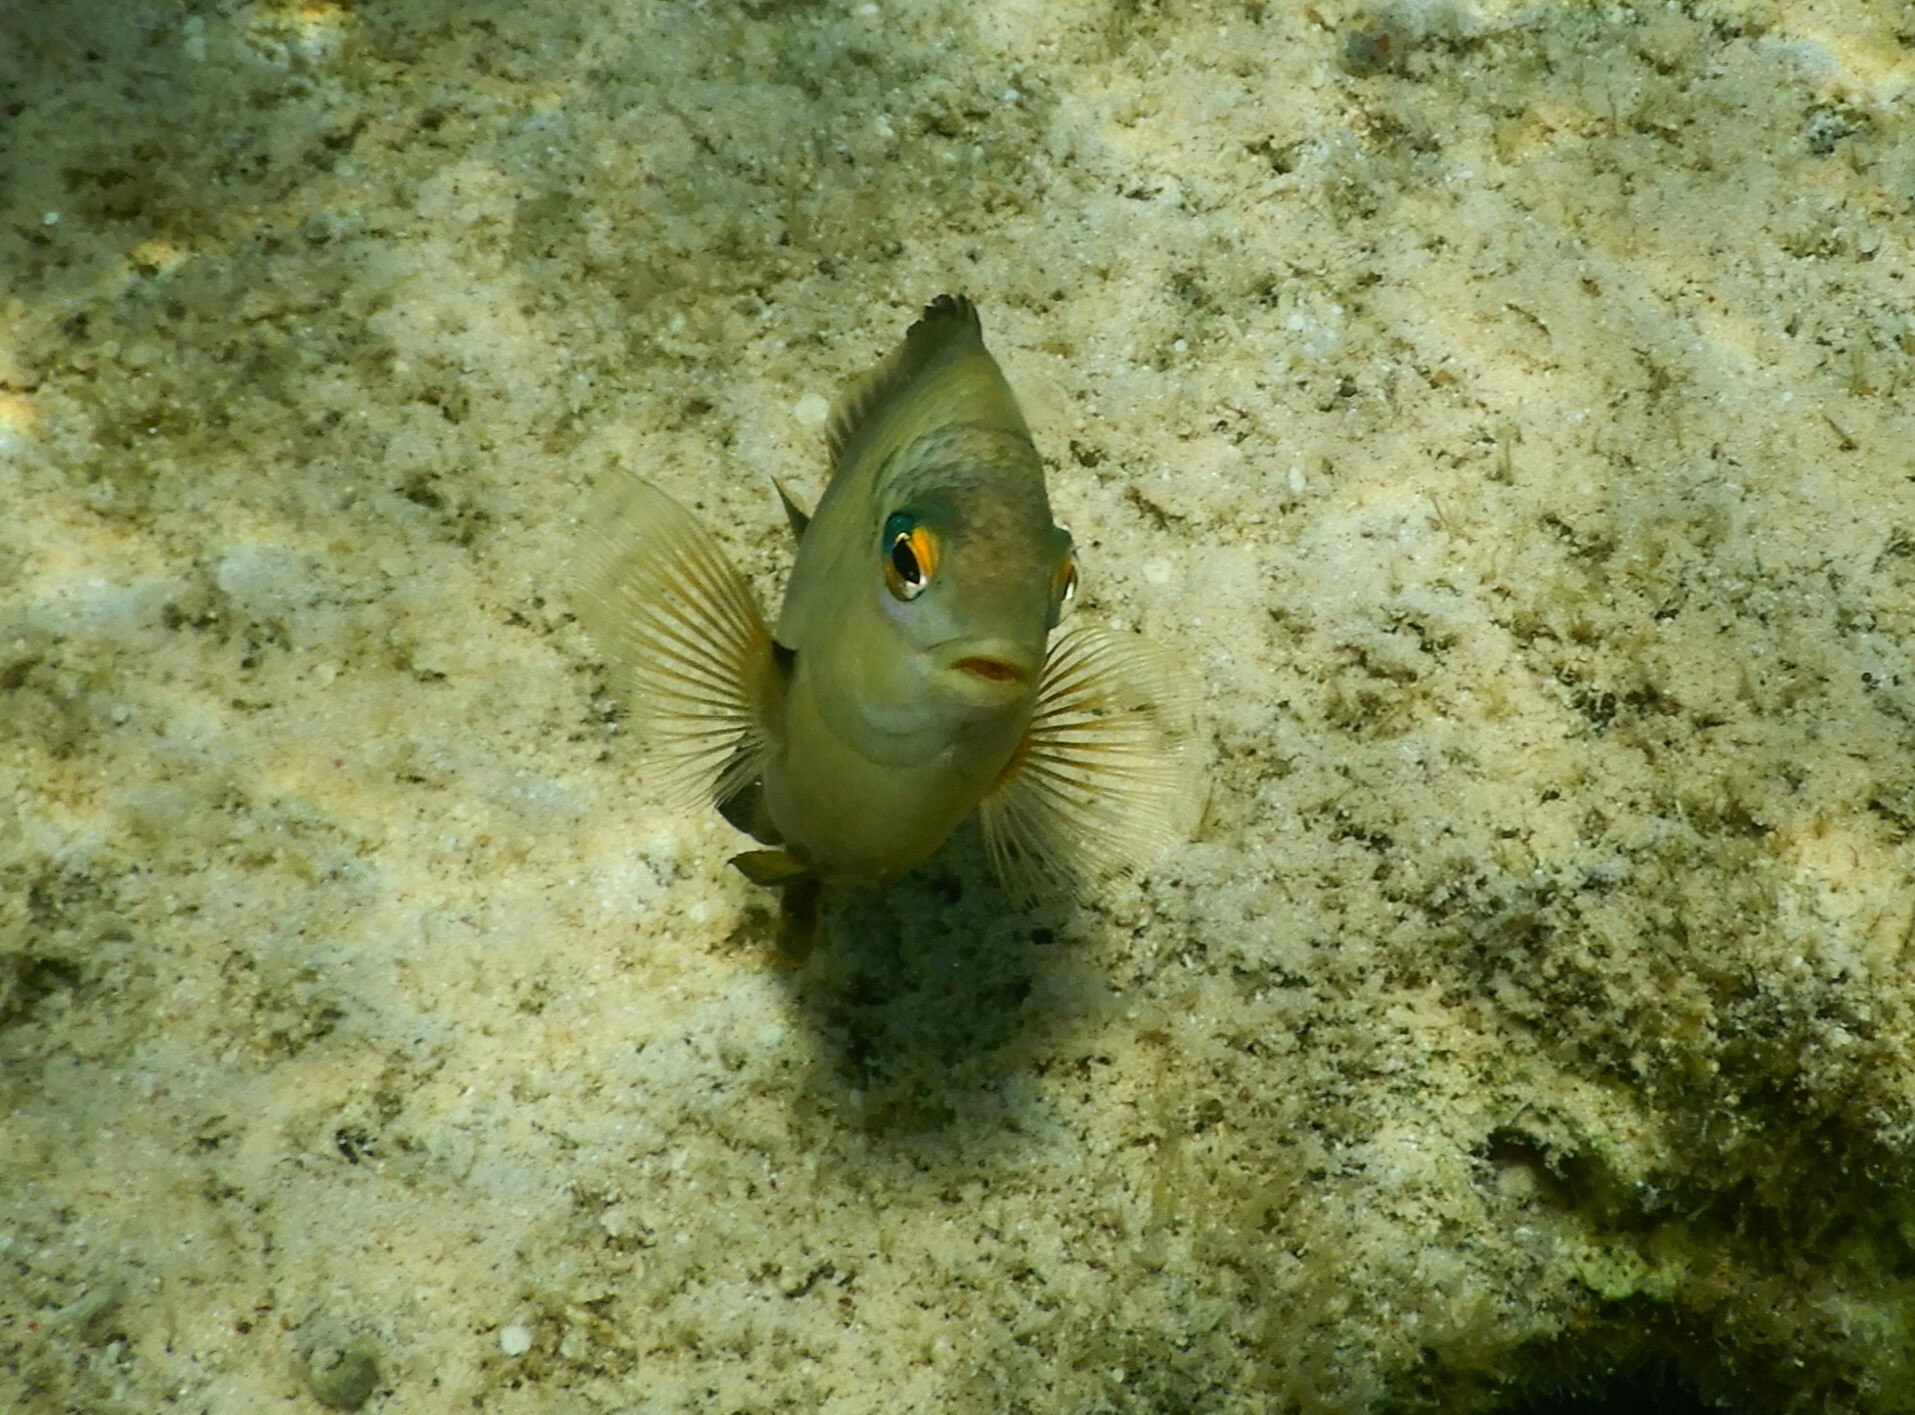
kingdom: Animalia
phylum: Chordata
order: Perciformes
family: Pomacentridae
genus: Stegastes
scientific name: Stegastes nigricans
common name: Dusky gregory
